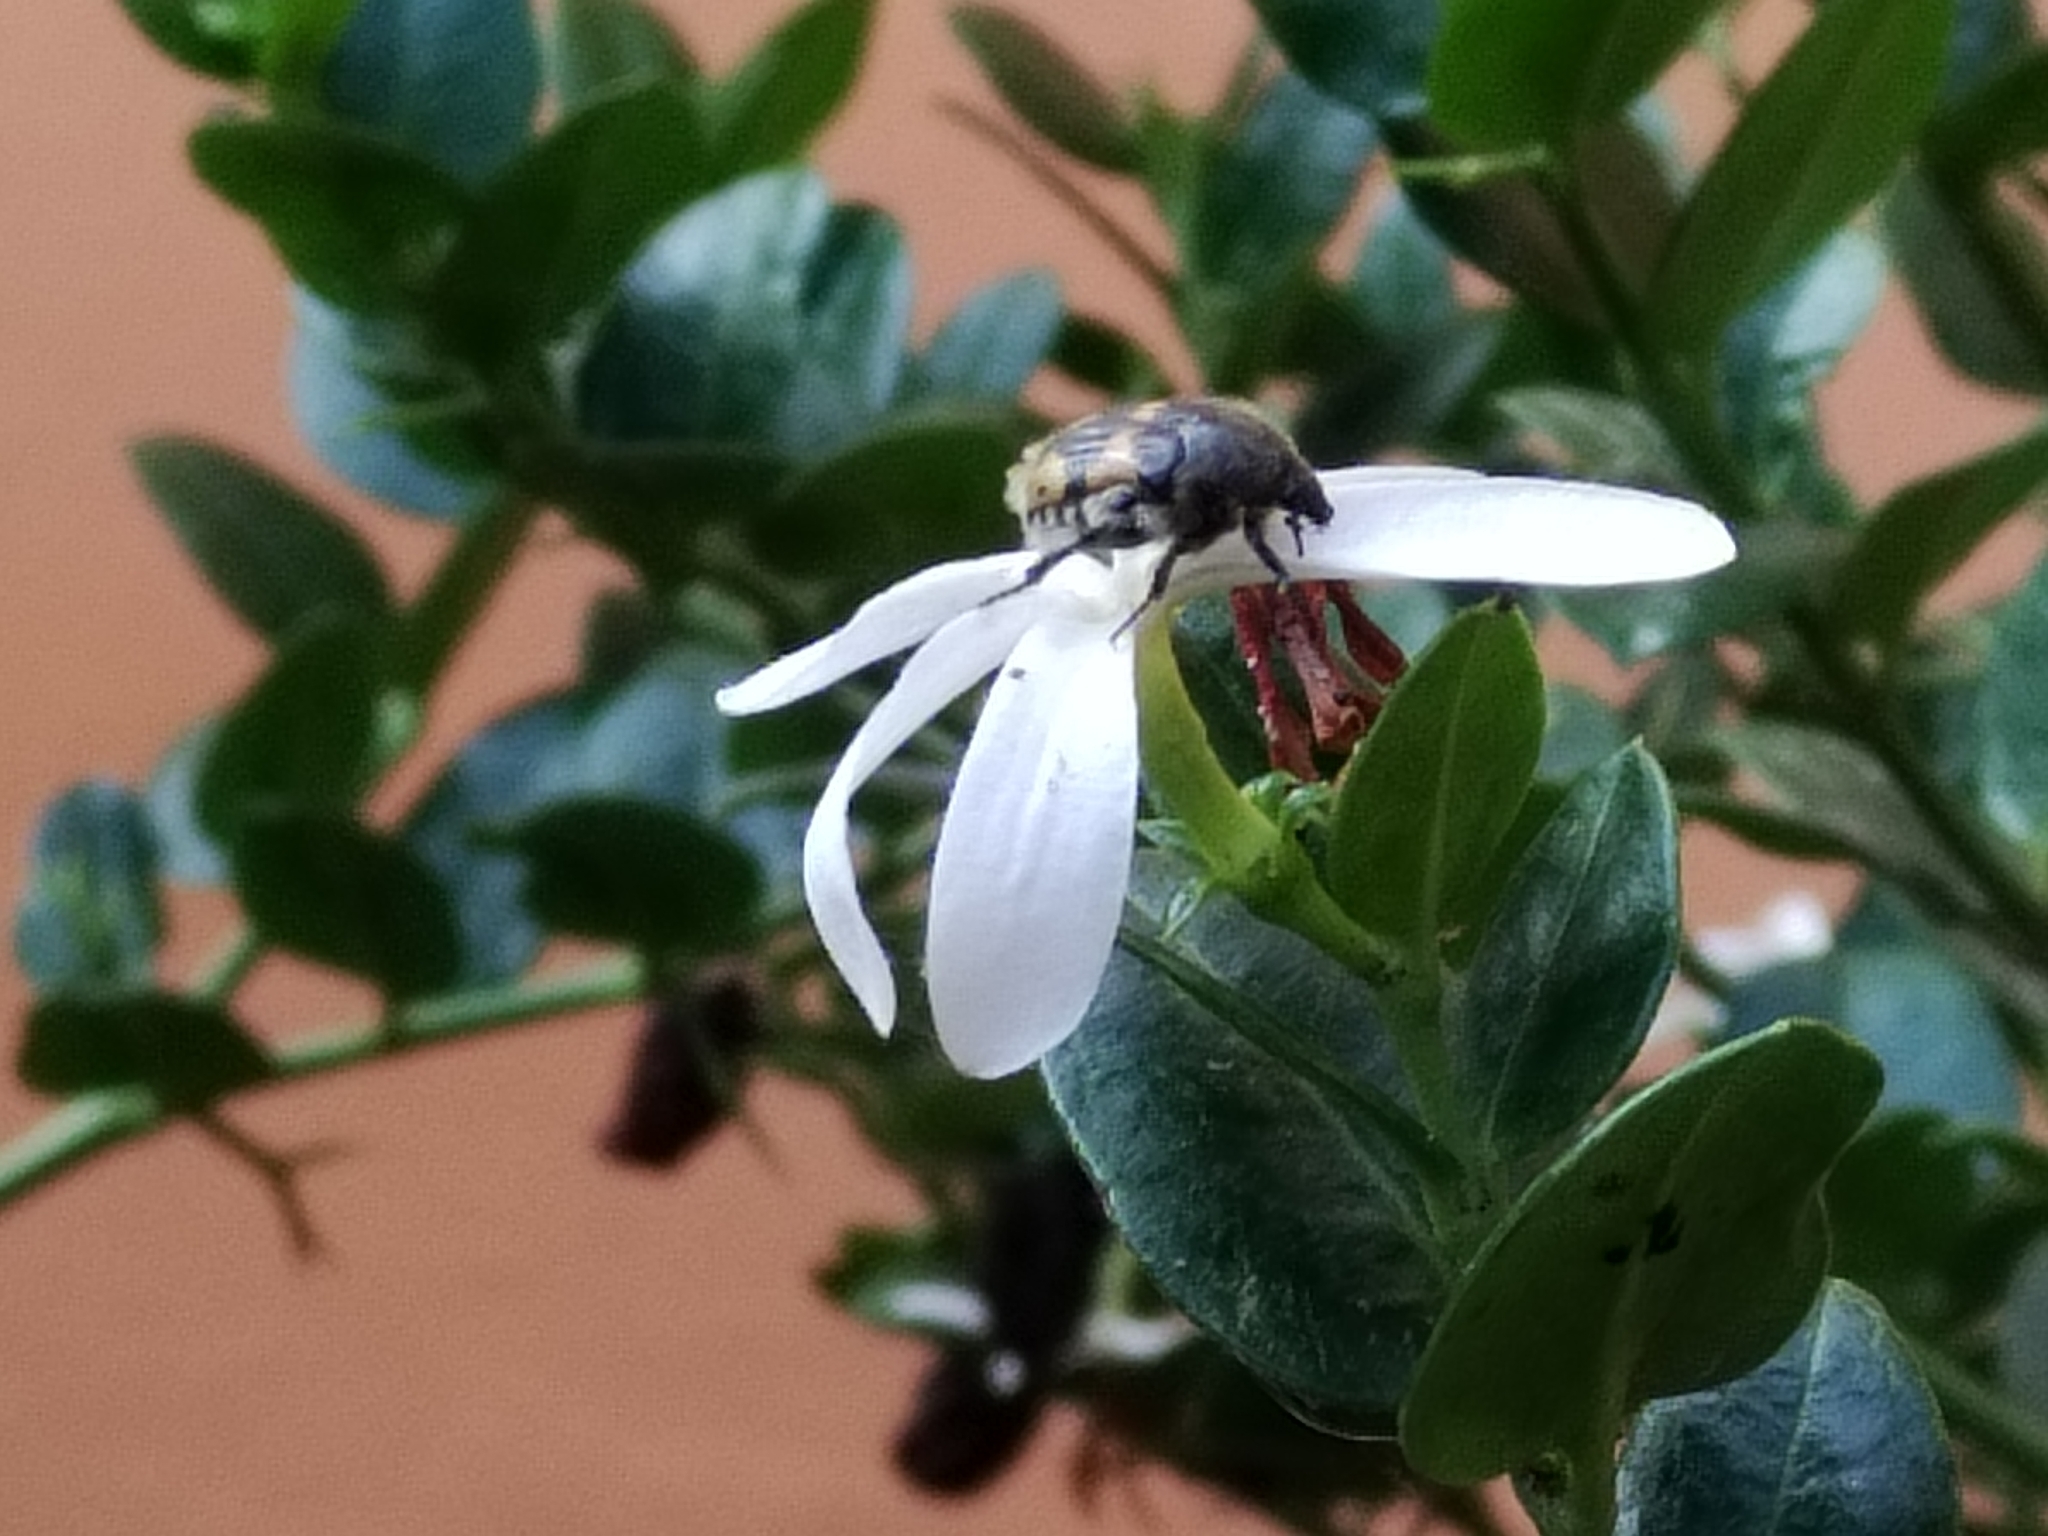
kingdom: Animalia
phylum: Arthropoda
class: Insecta
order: Coleoptera
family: Scarabaeidae
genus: Euphoria
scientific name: Euphoria basalis
